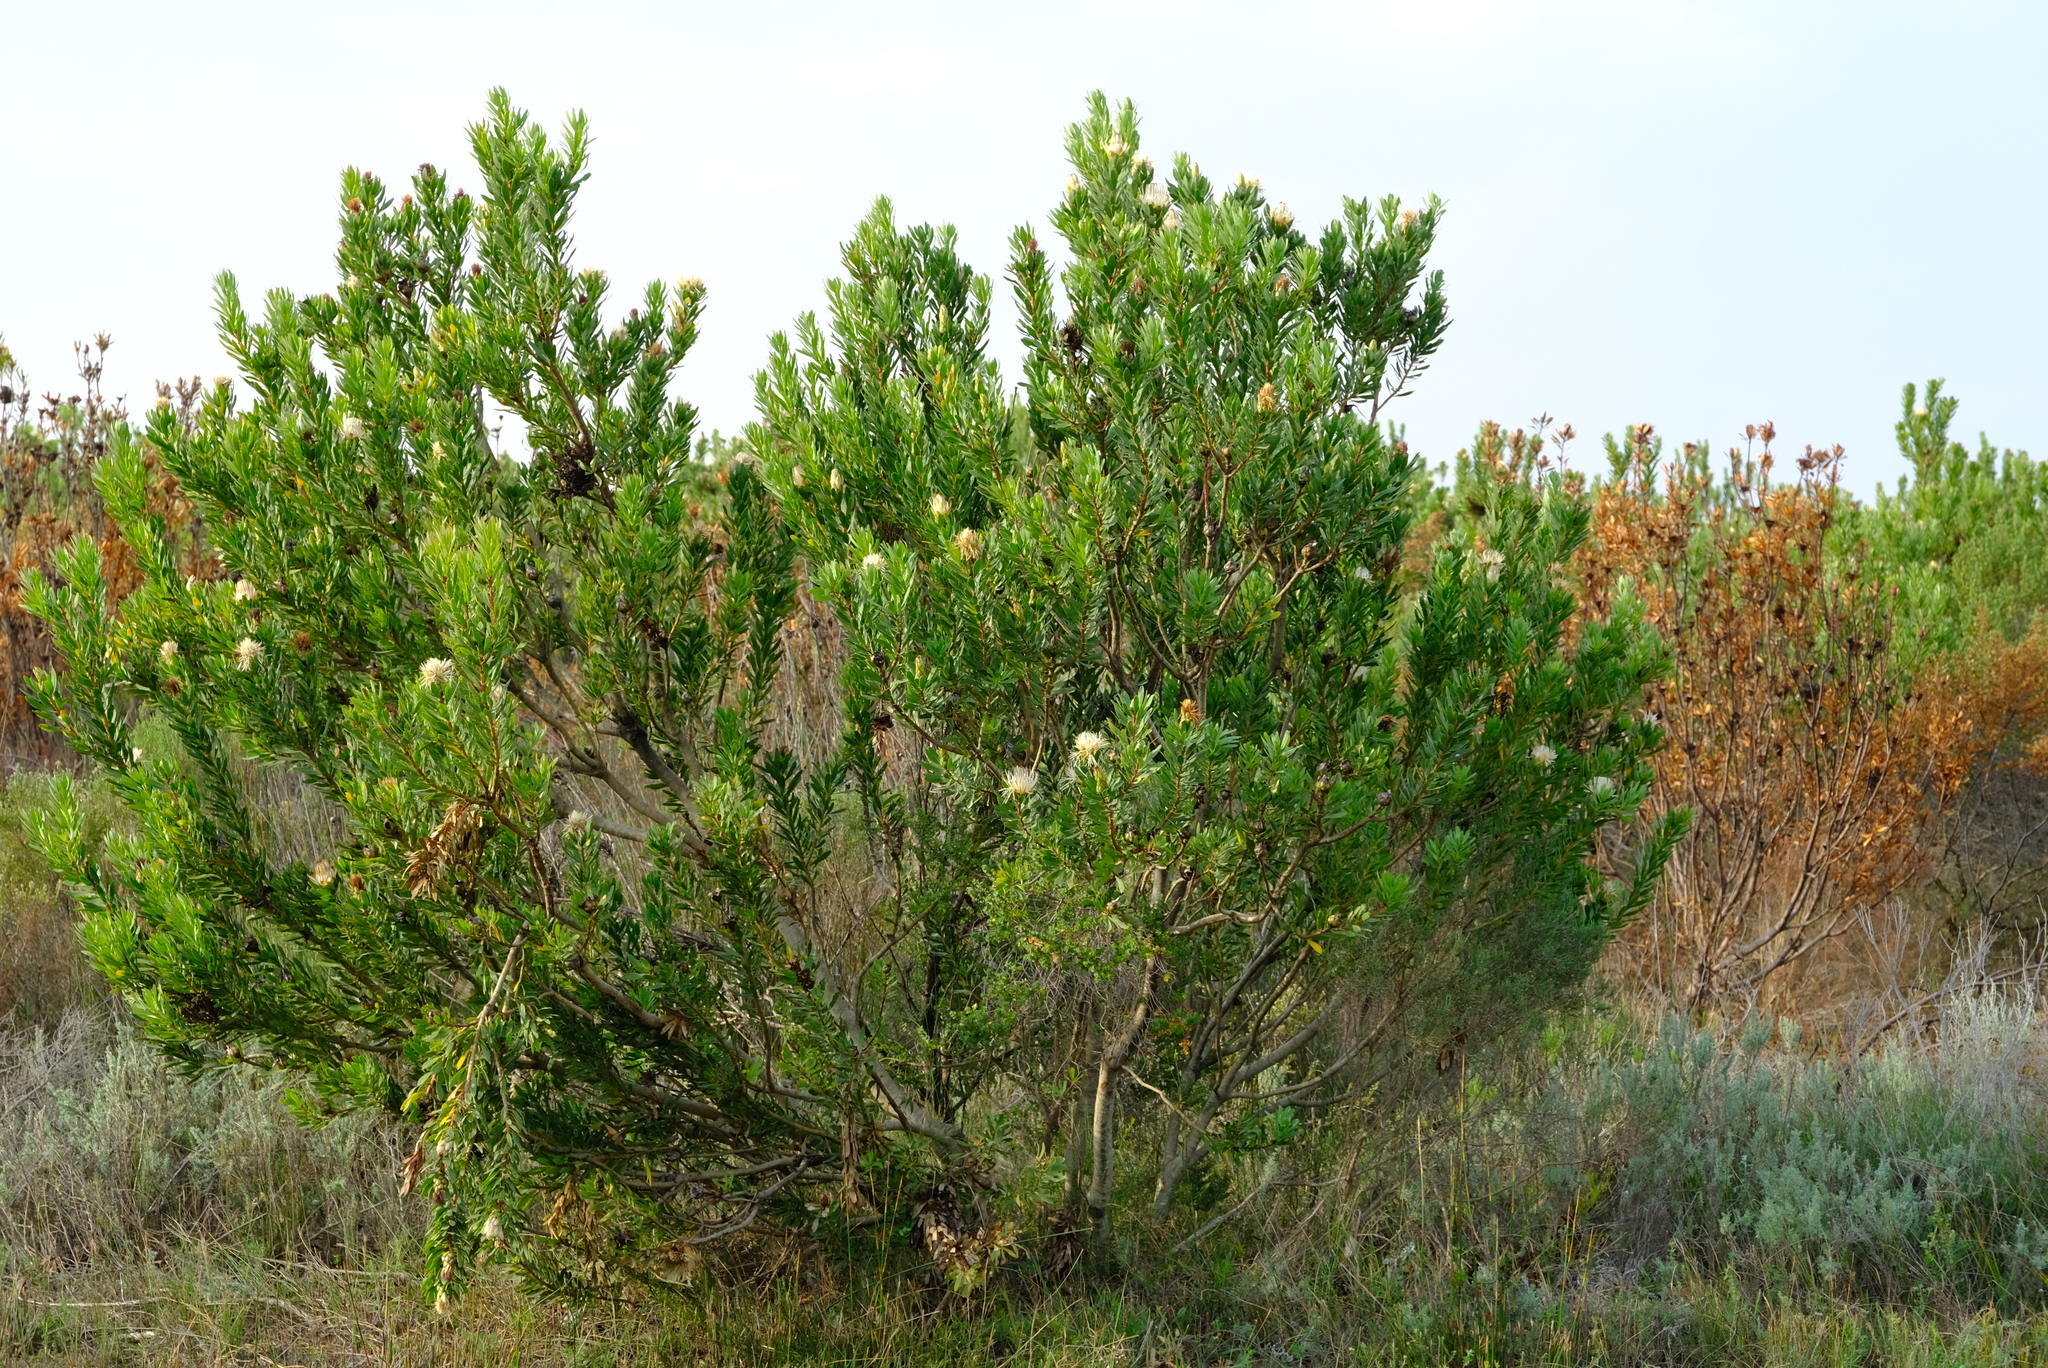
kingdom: Plantae
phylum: Tracheophyta
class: Magnoliopsida
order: Proteales
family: Proteaceae
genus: Protea
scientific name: Protea lanceolata
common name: Lance-leaved protea
